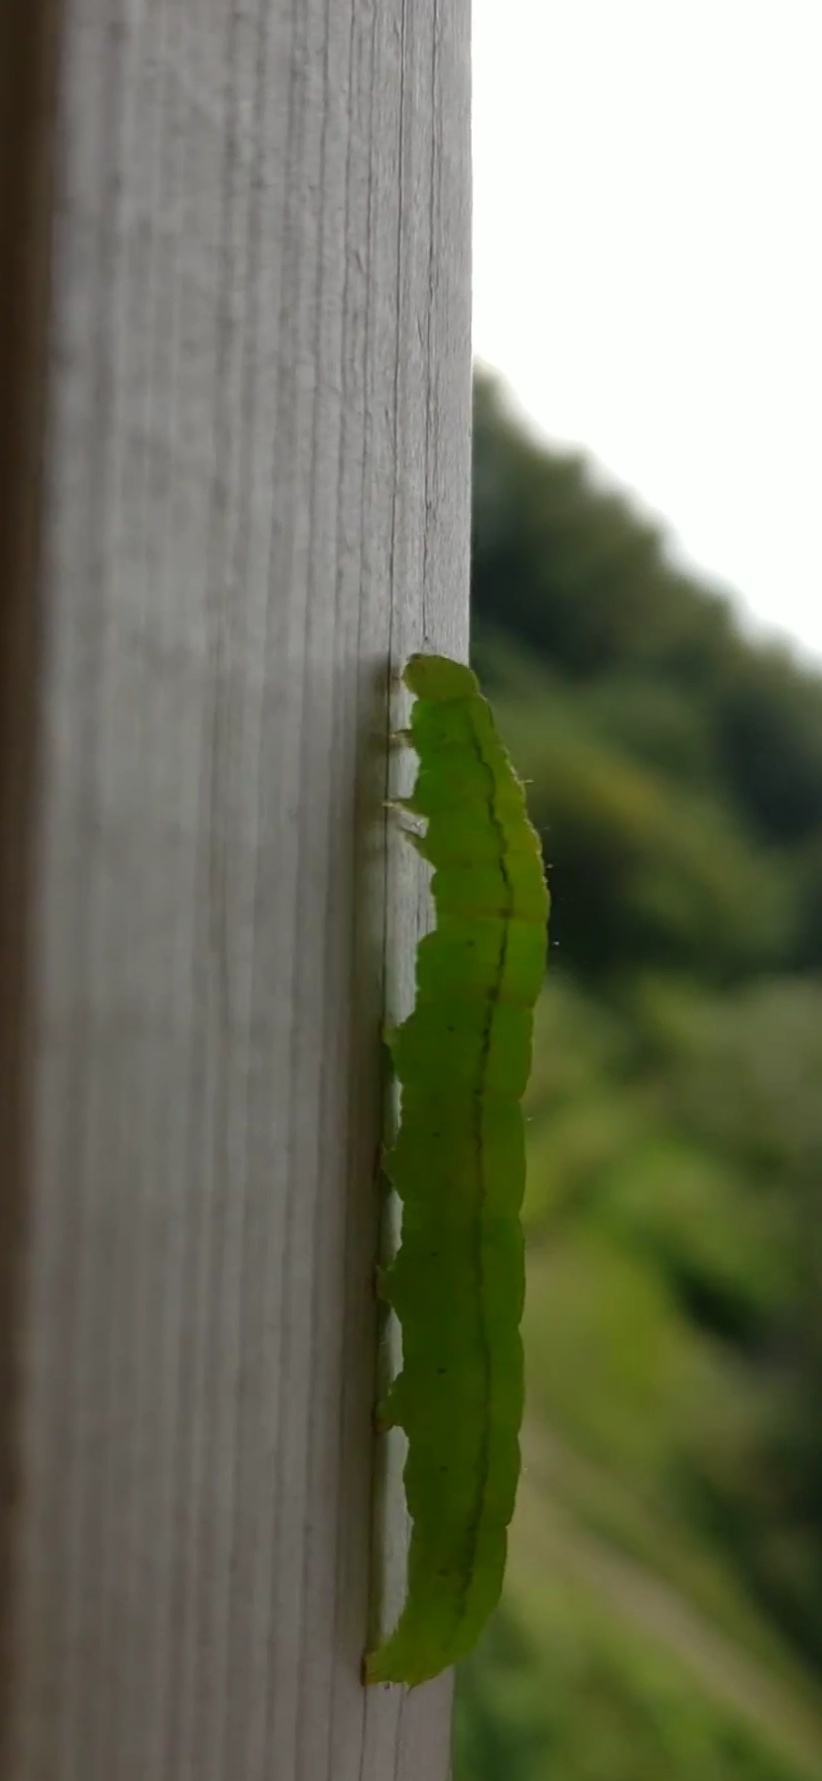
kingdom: Animalia
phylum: Arthropoda
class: Insecta
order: Lepidoptera
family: Erebidae
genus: Scoliopteryx
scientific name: Scoliopteryx libatrix
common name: Herald
